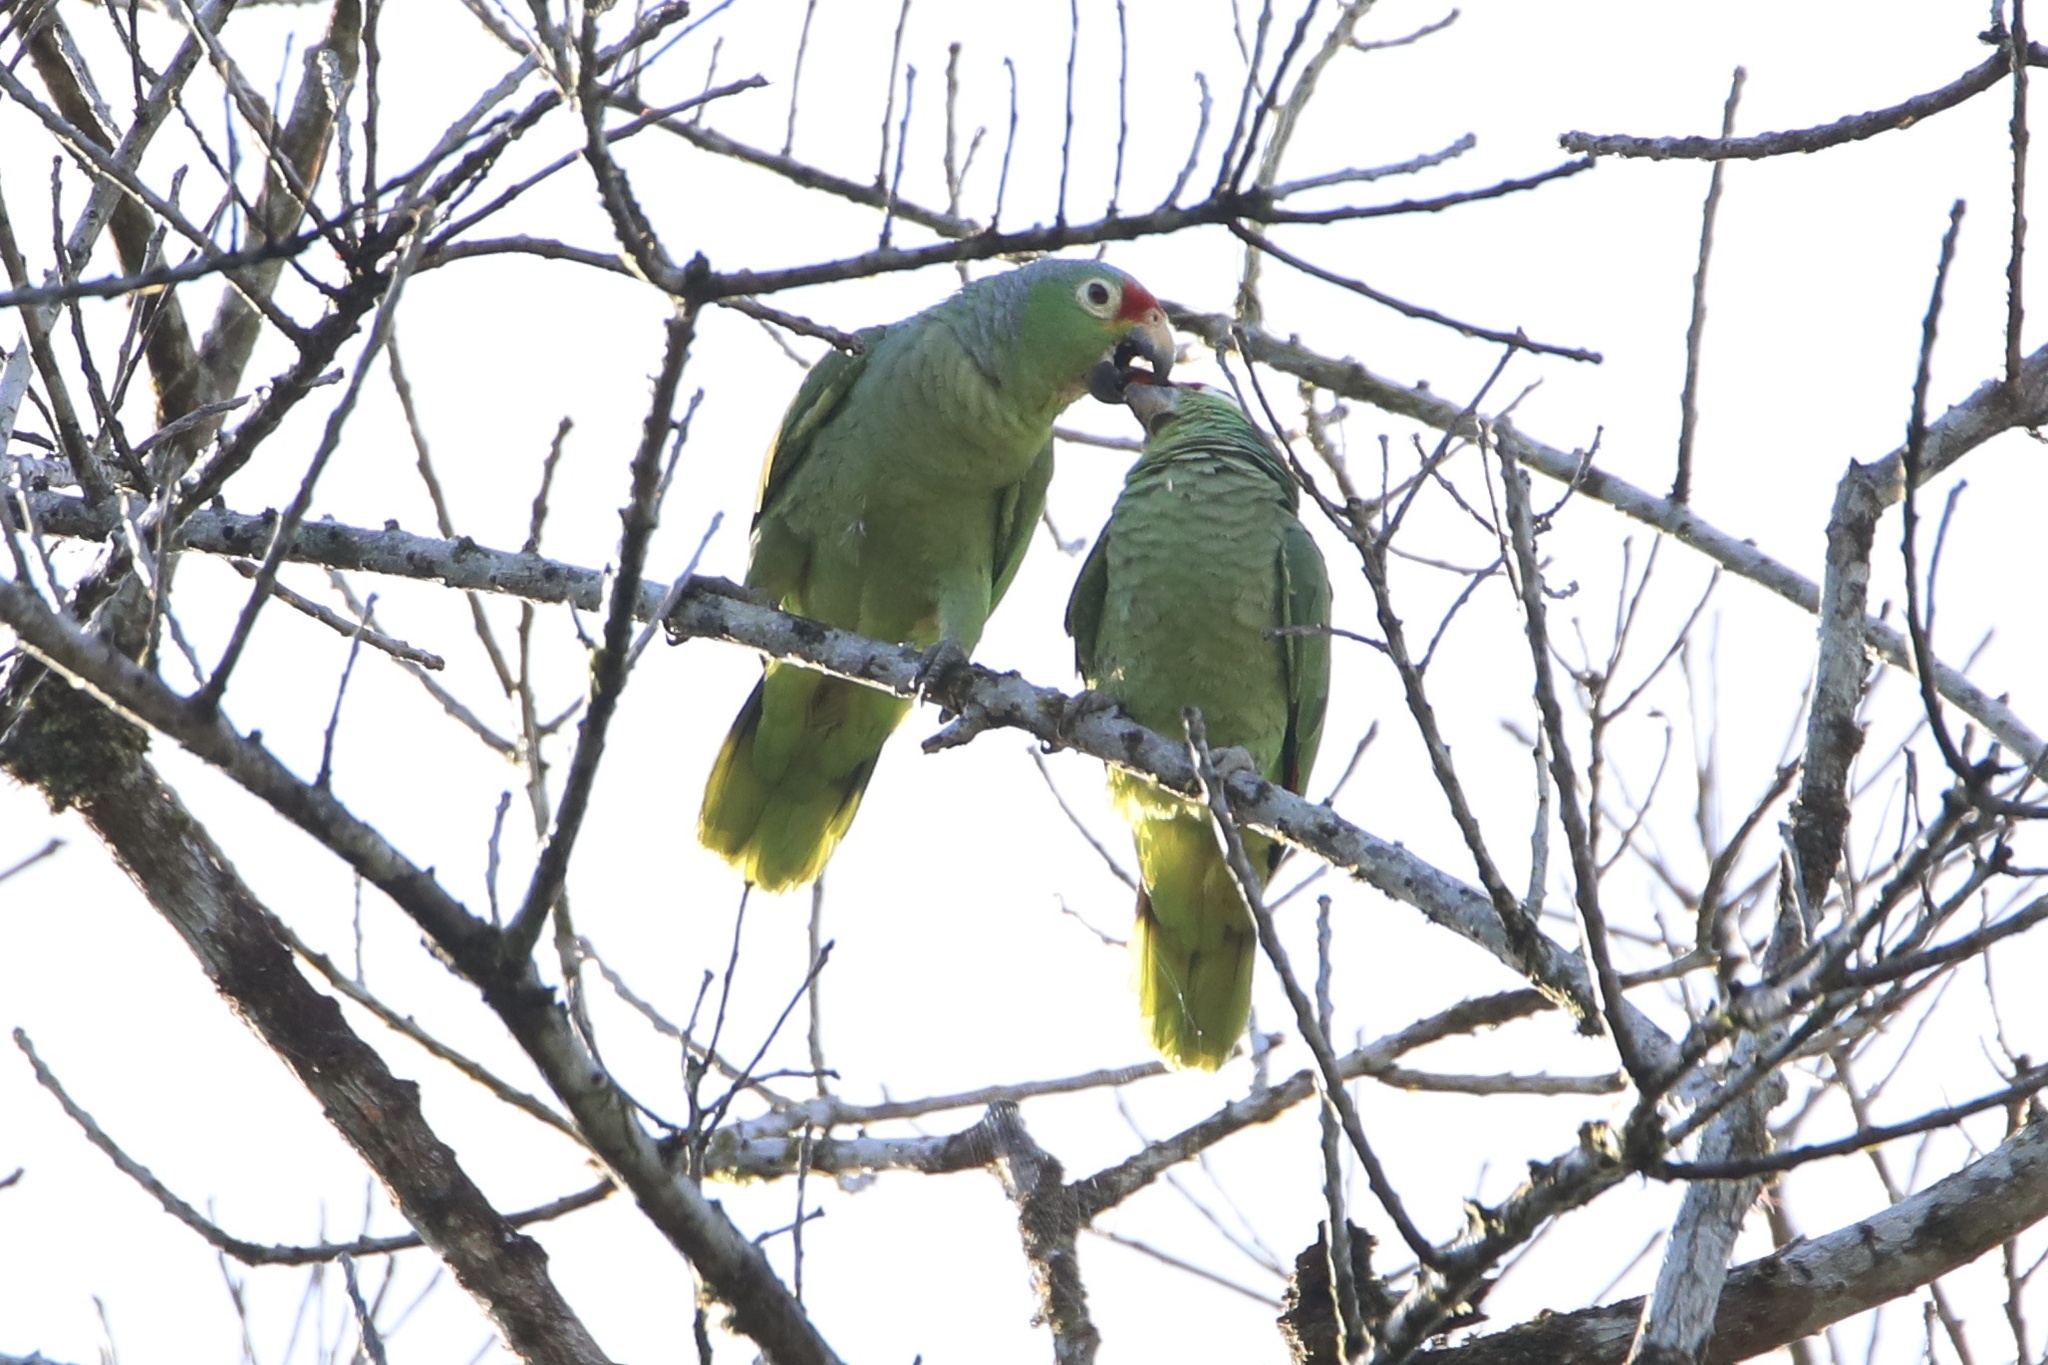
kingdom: Animalia
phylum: Chordata
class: Aves
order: Psittaciformes
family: Psittacidae
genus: Amazona
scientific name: Amazona autumnalis
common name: Red-lored amazon
